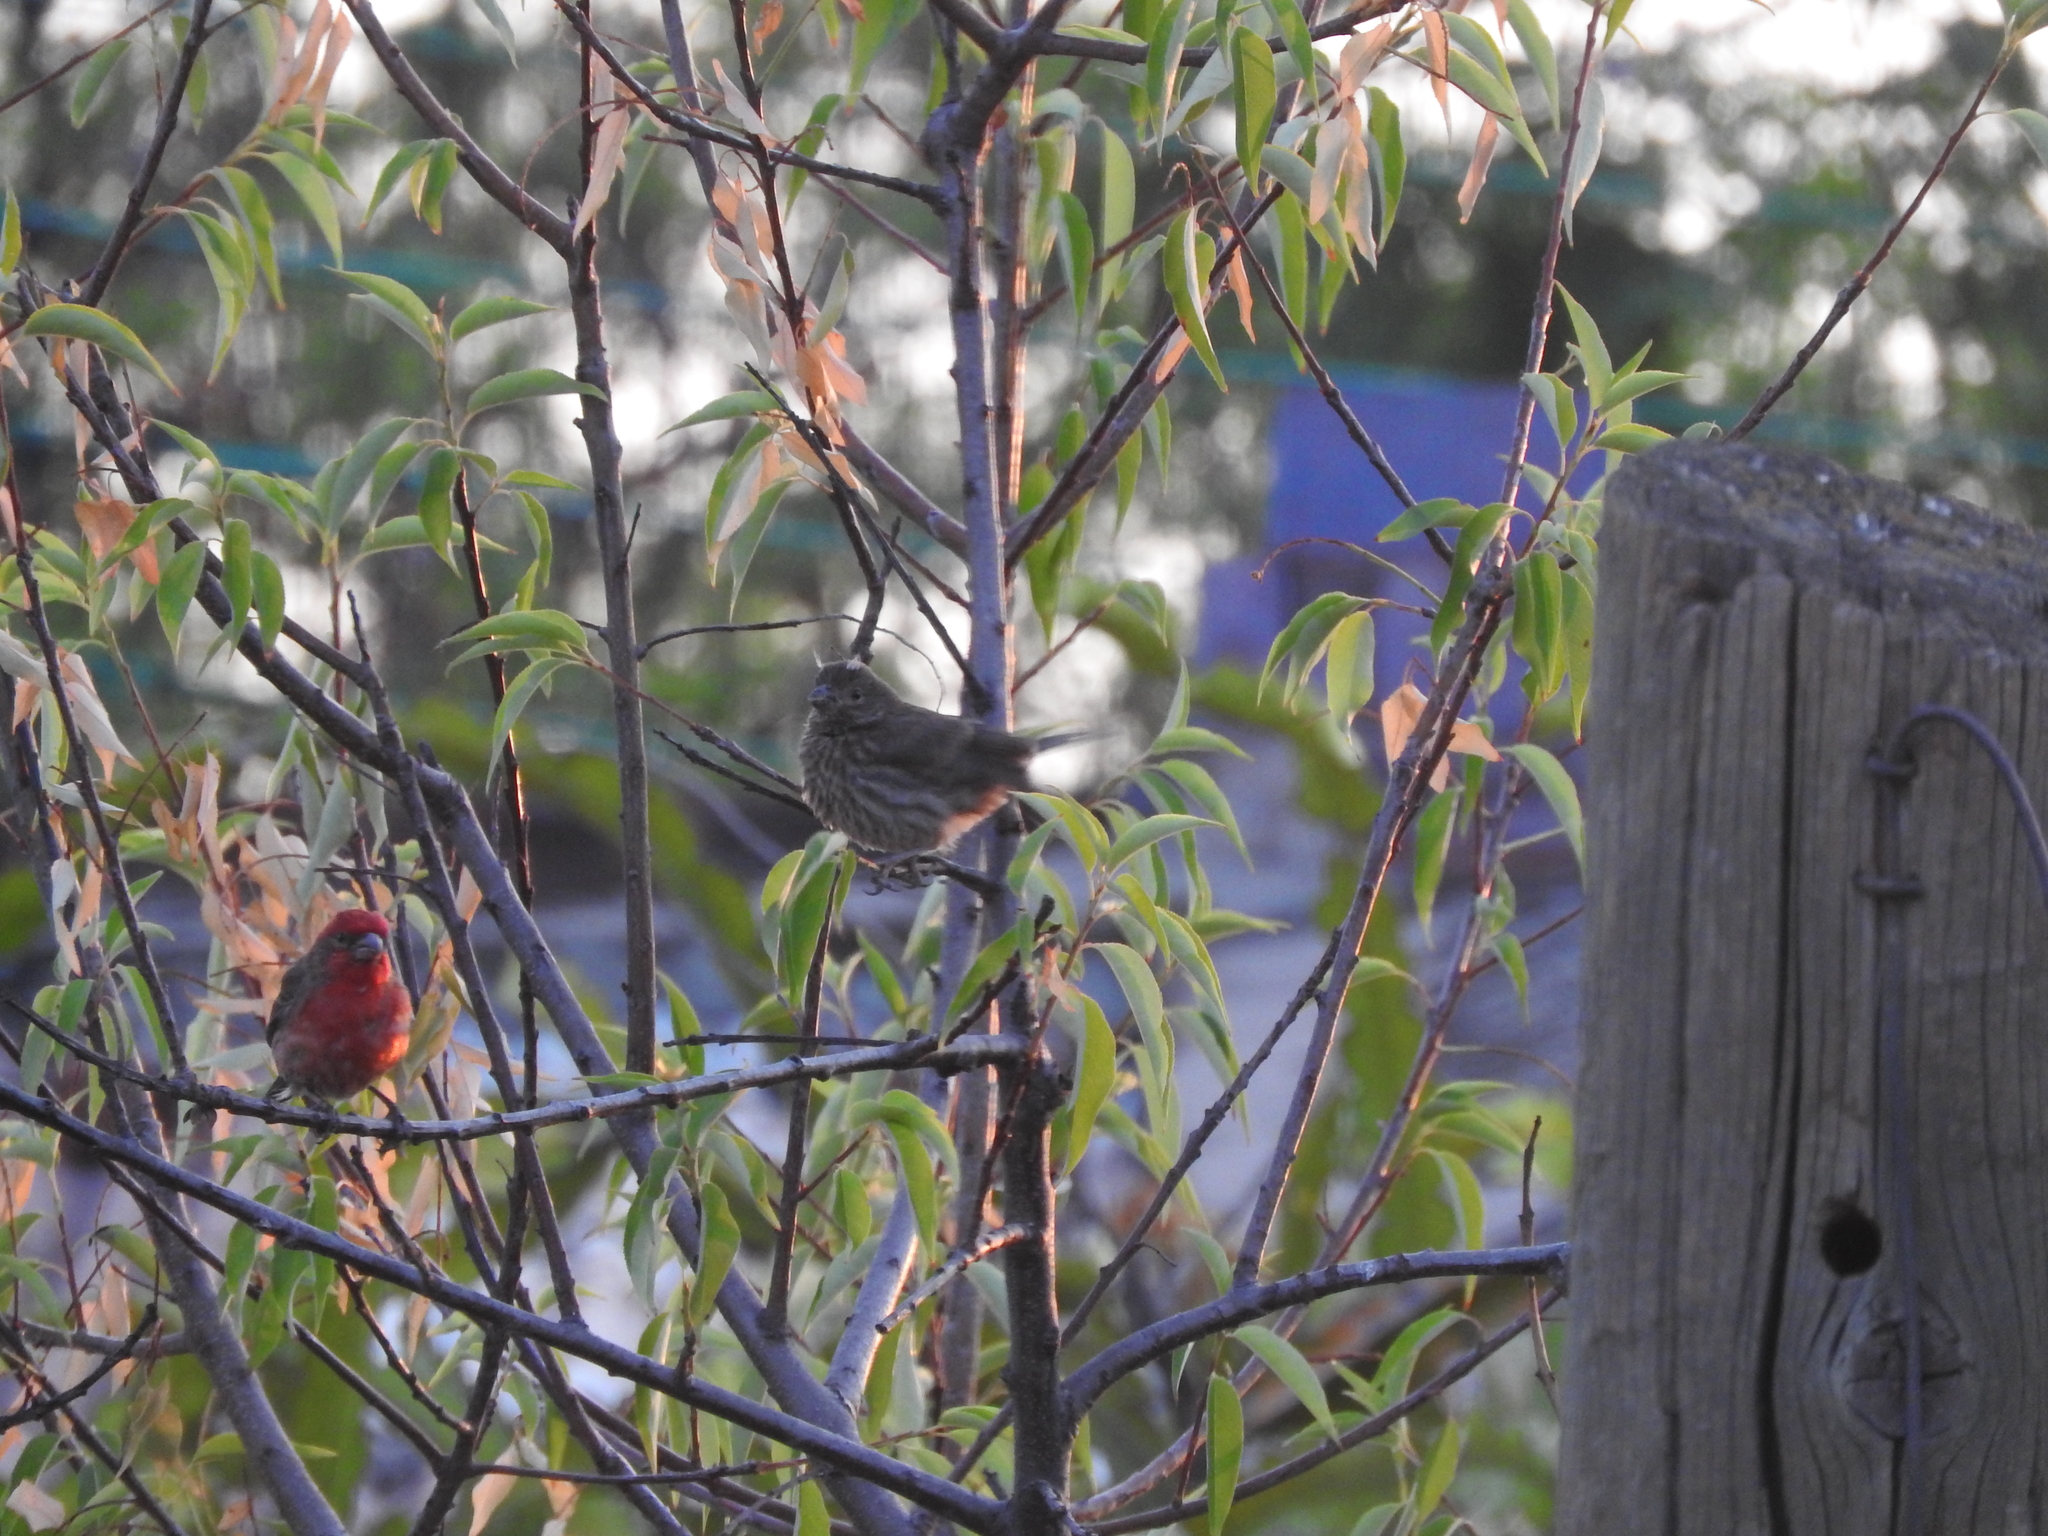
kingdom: Animalia
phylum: Chordata
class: Aves
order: Passeriformes
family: Fringillidae
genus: Haemorhous
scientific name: Haemorhous mexicanus
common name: House finch
